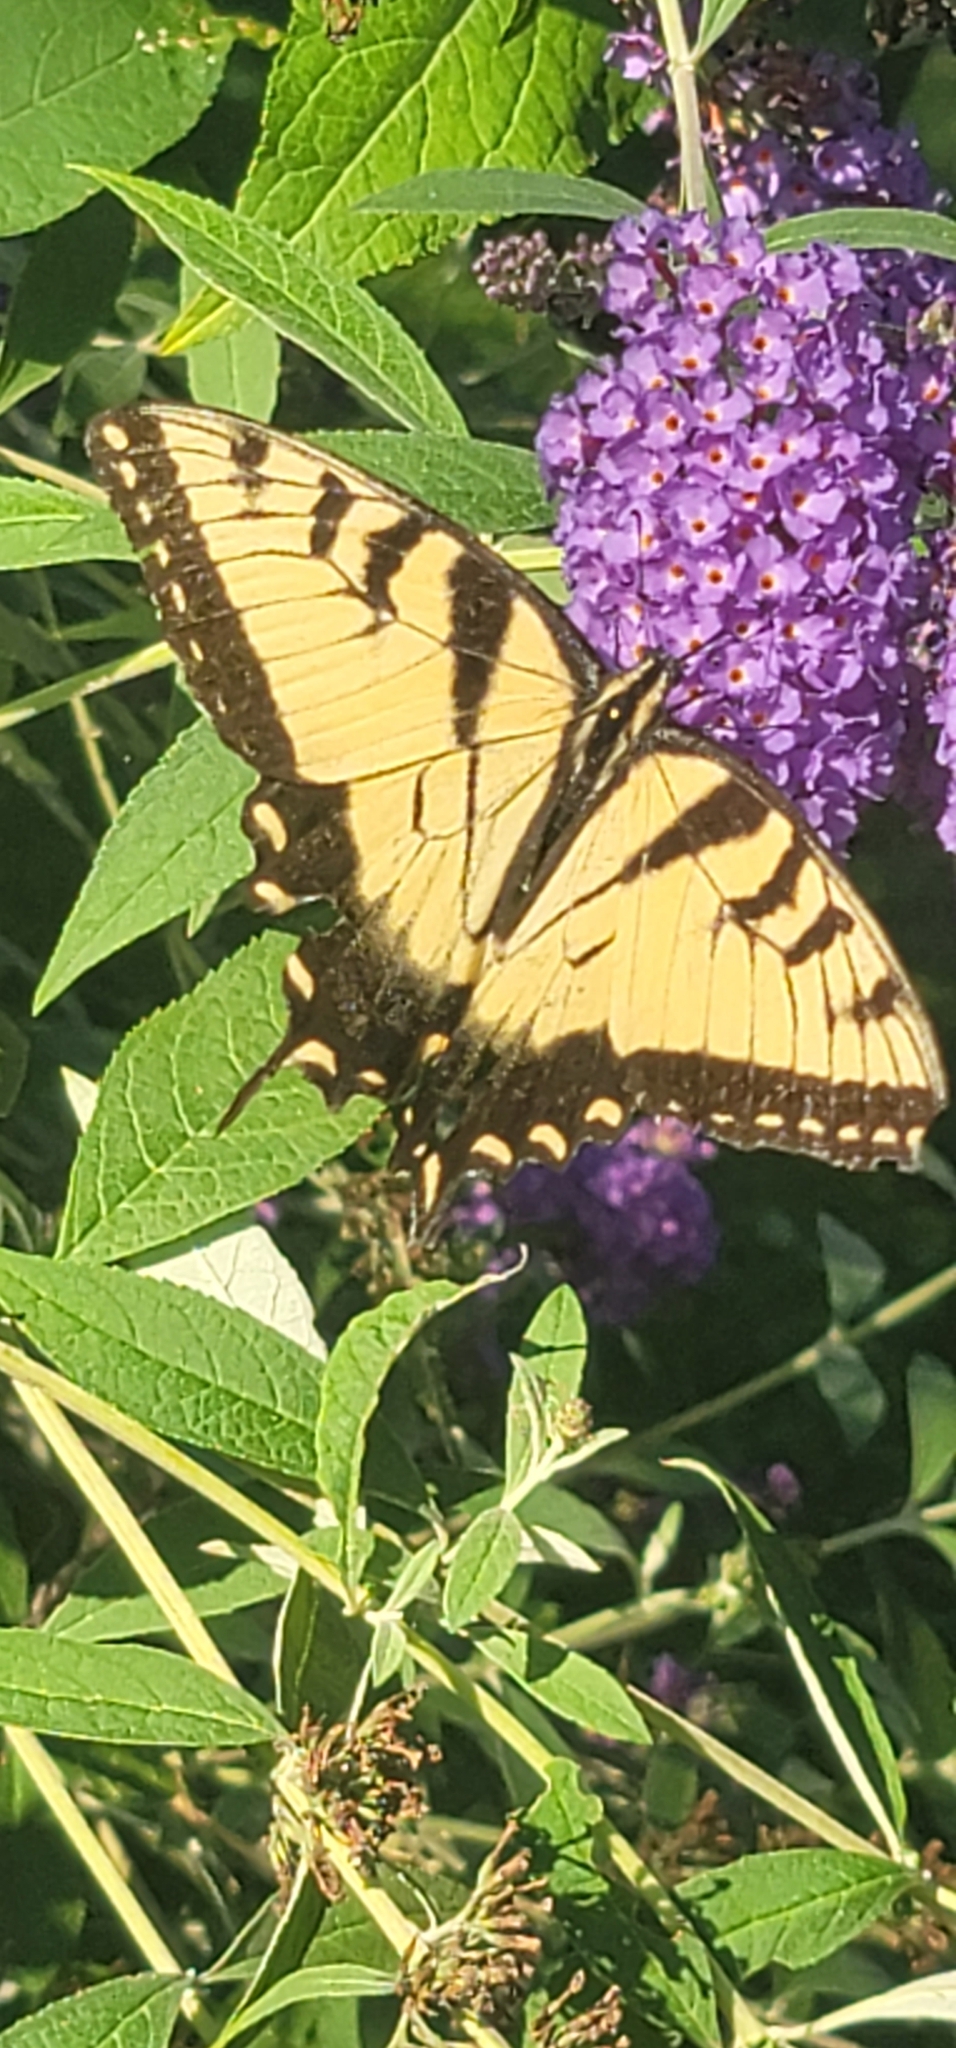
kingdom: Animalia
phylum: Arthropoda
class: Insecta
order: Lepidoptera
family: Papilionidae
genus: Papilio
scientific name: Papilio glaucus
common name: Tiger swallowtail
